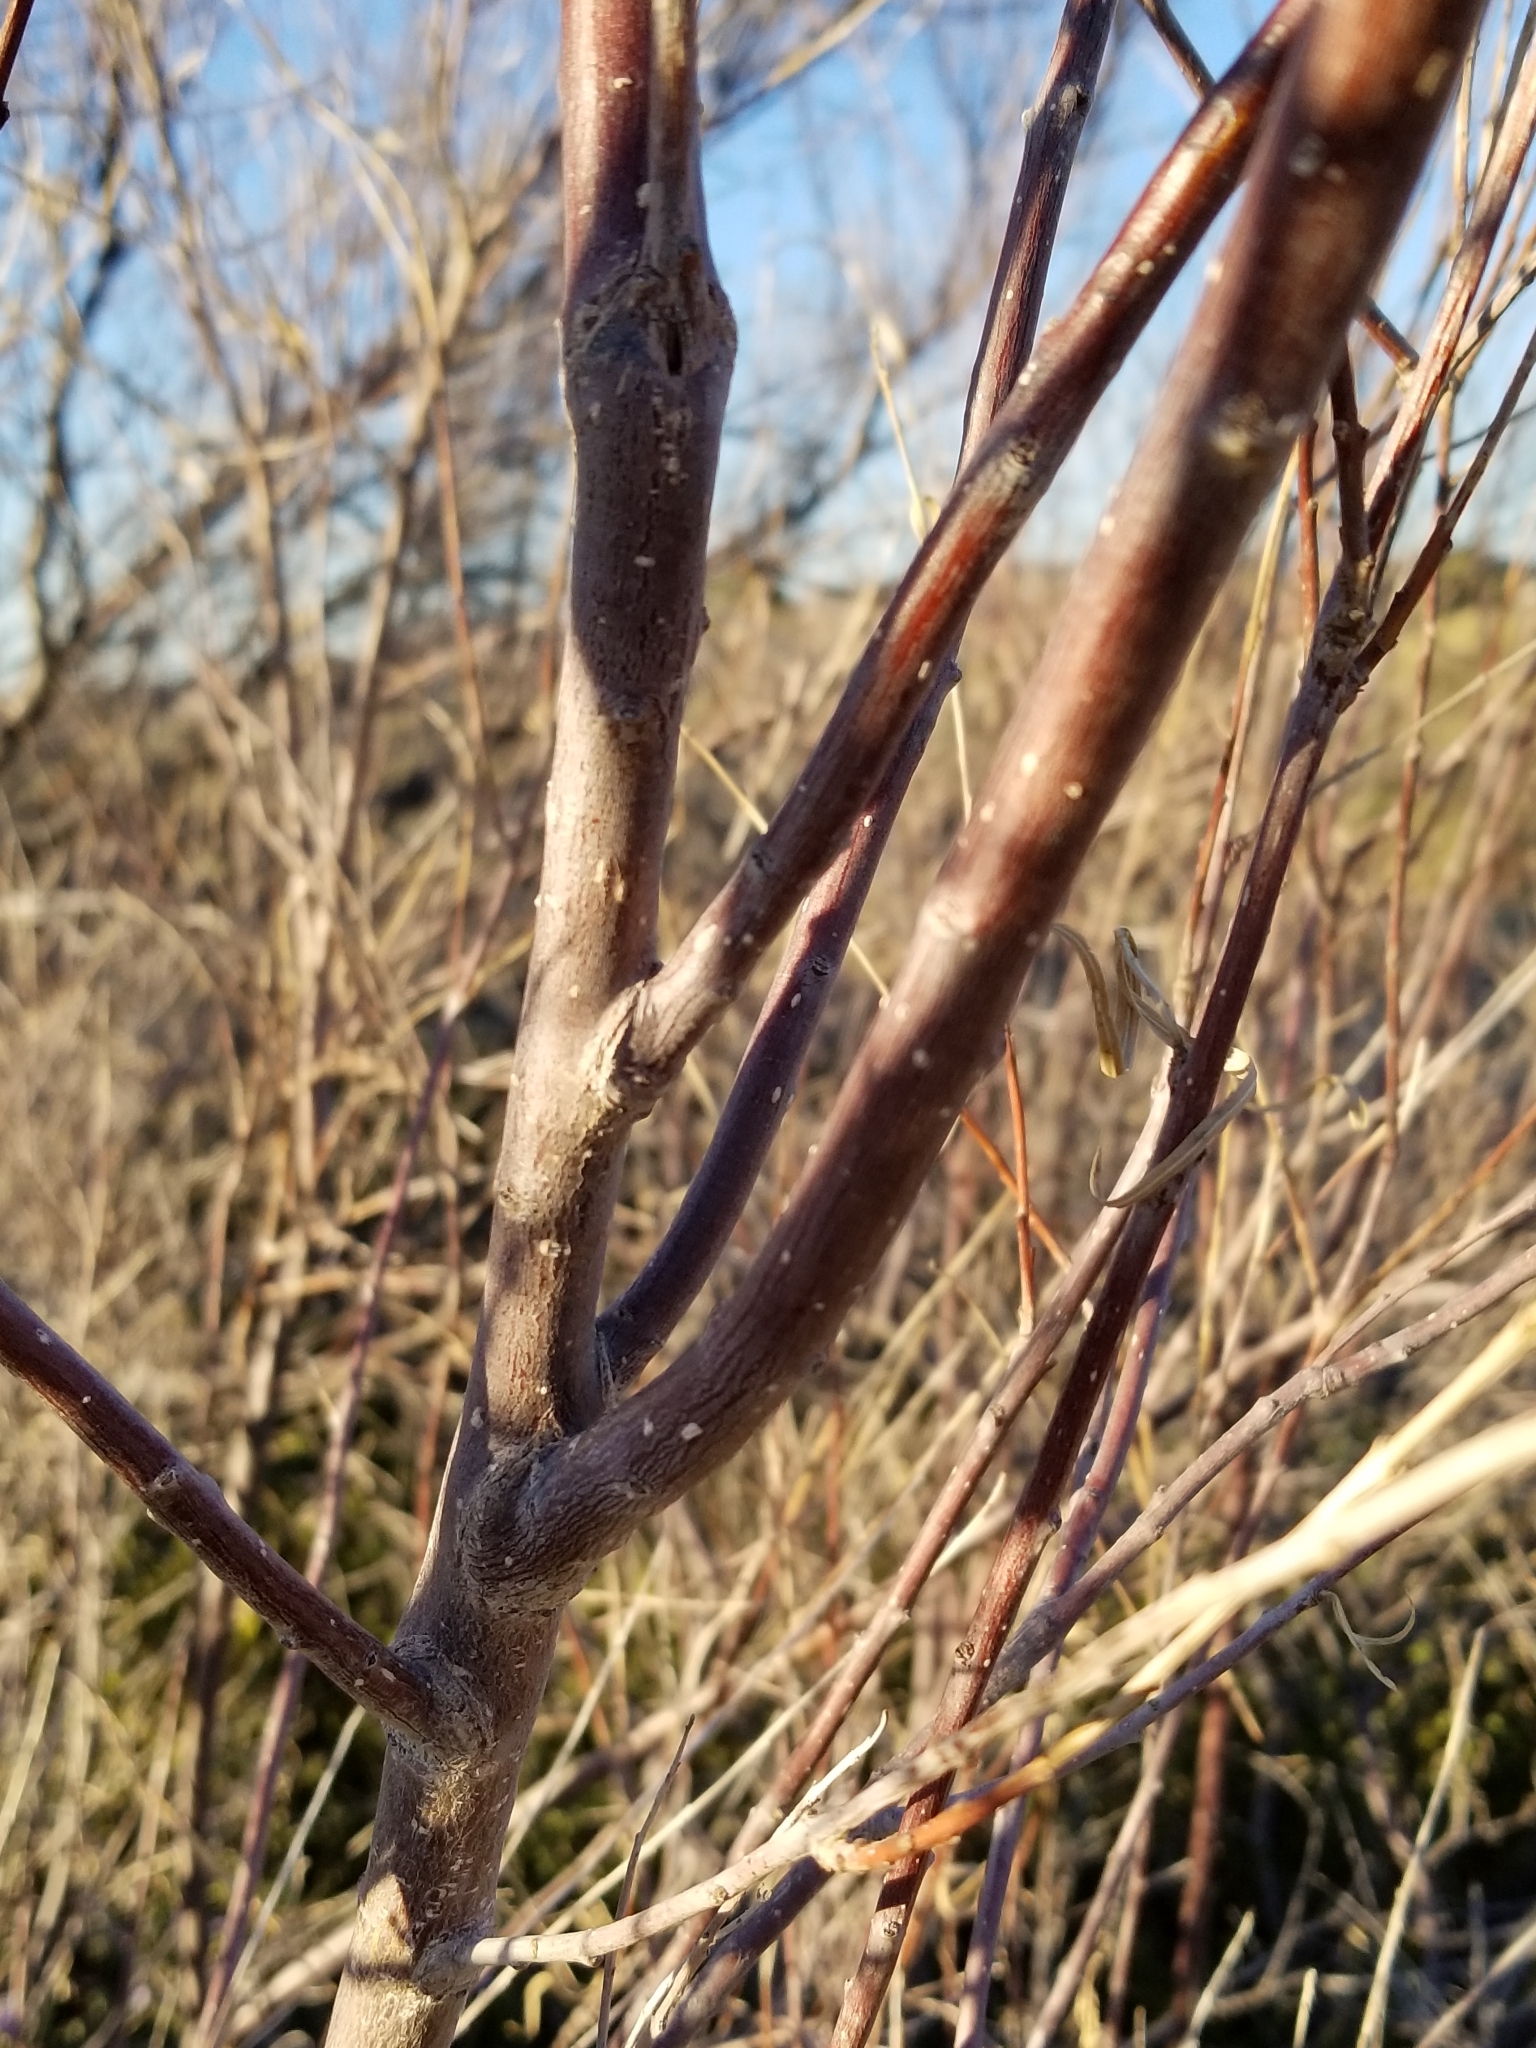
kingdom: Plantae
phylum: Tracheophyta
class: Magnoliopsida
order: Lamiales
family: Bignoniaceae
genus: Chilopsis
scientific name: Chilopsis linearis
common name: Desert-willow
